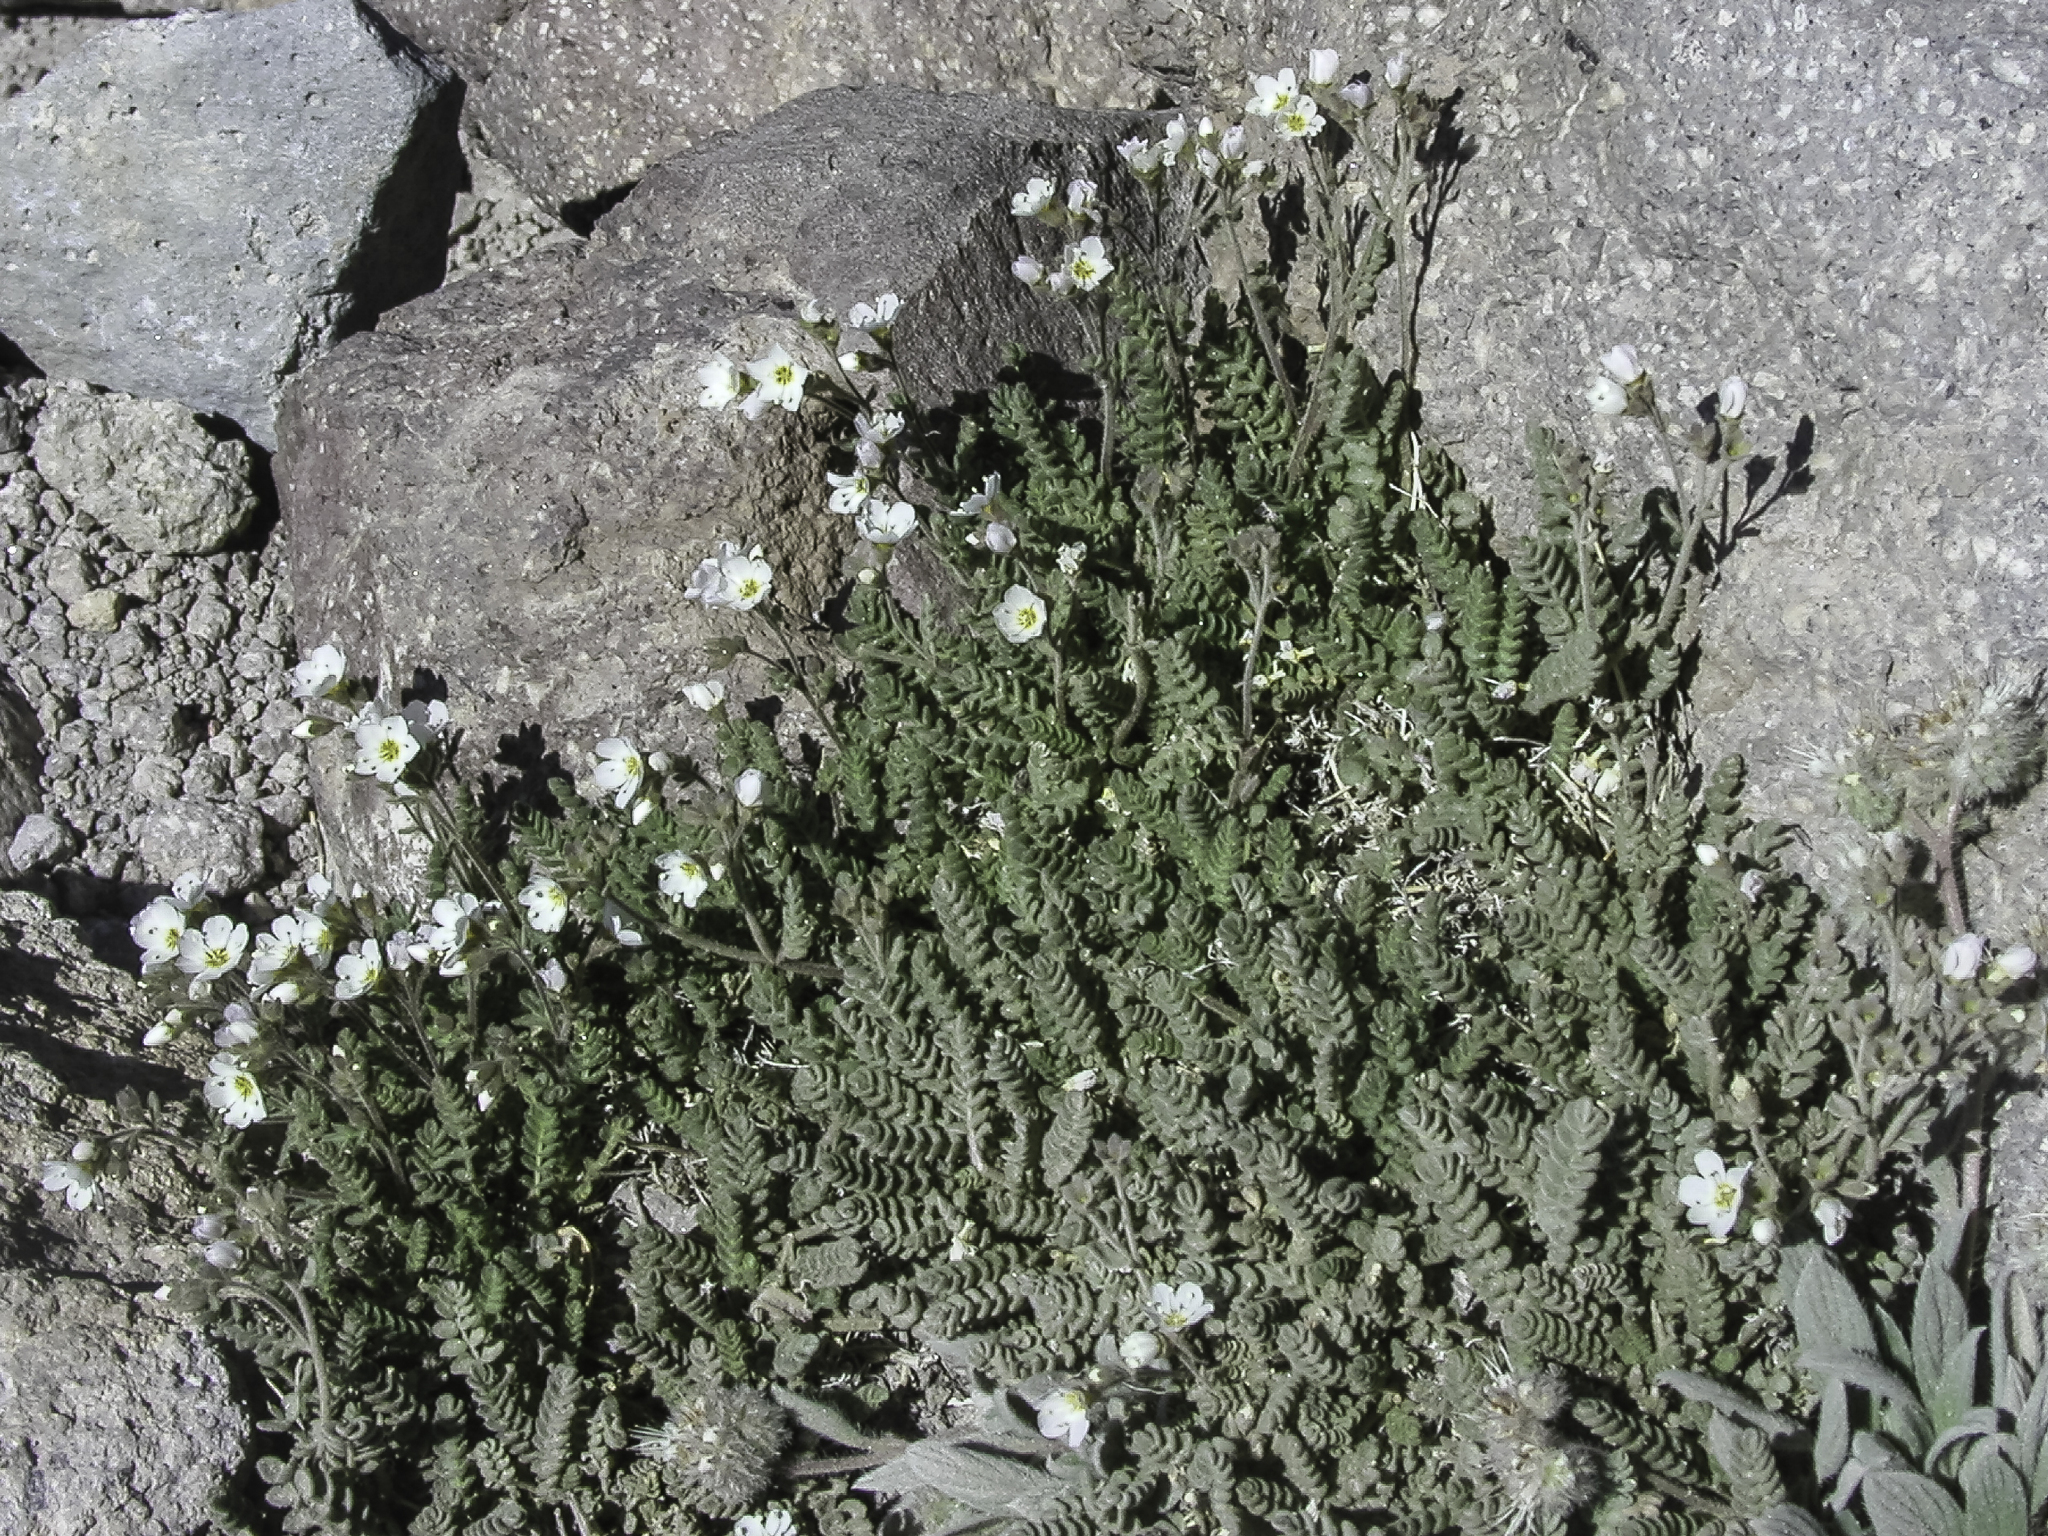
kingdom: Plantae
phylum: Tracheophyta
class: Magnoliopsida
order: Ericales
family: Polemoniaceae
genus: Polemonium
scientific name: Polemonium pulcherrimum
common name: Short jacob's-ladder
